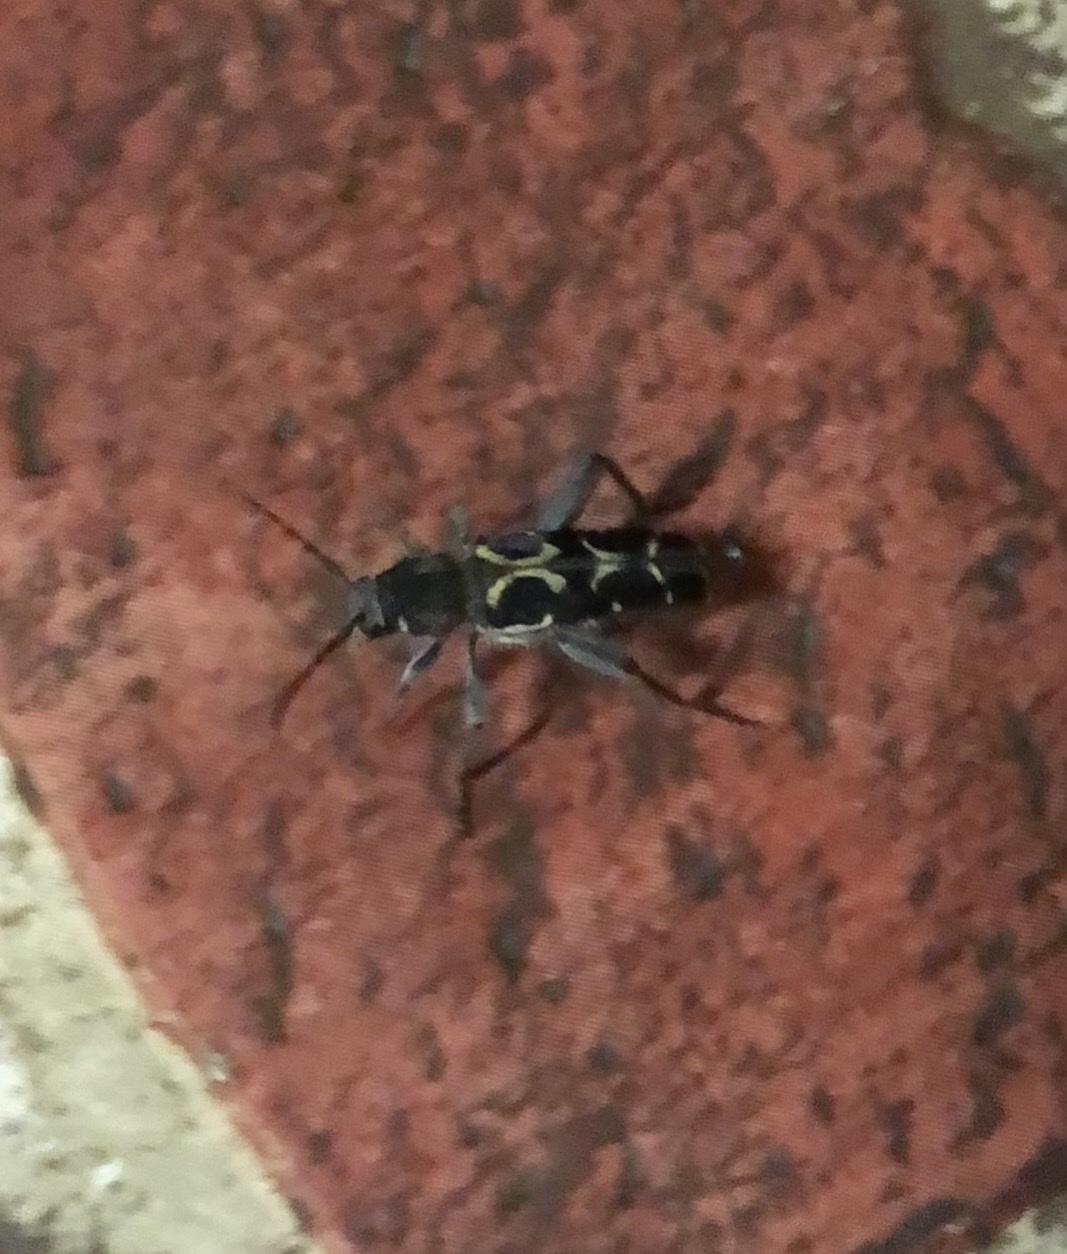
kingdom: Animalia
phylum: Arthropoda
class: Insecta
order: Coleoptera
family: Cerambycidae
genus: Neoclytus
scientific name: Neoclytus conjunctus
